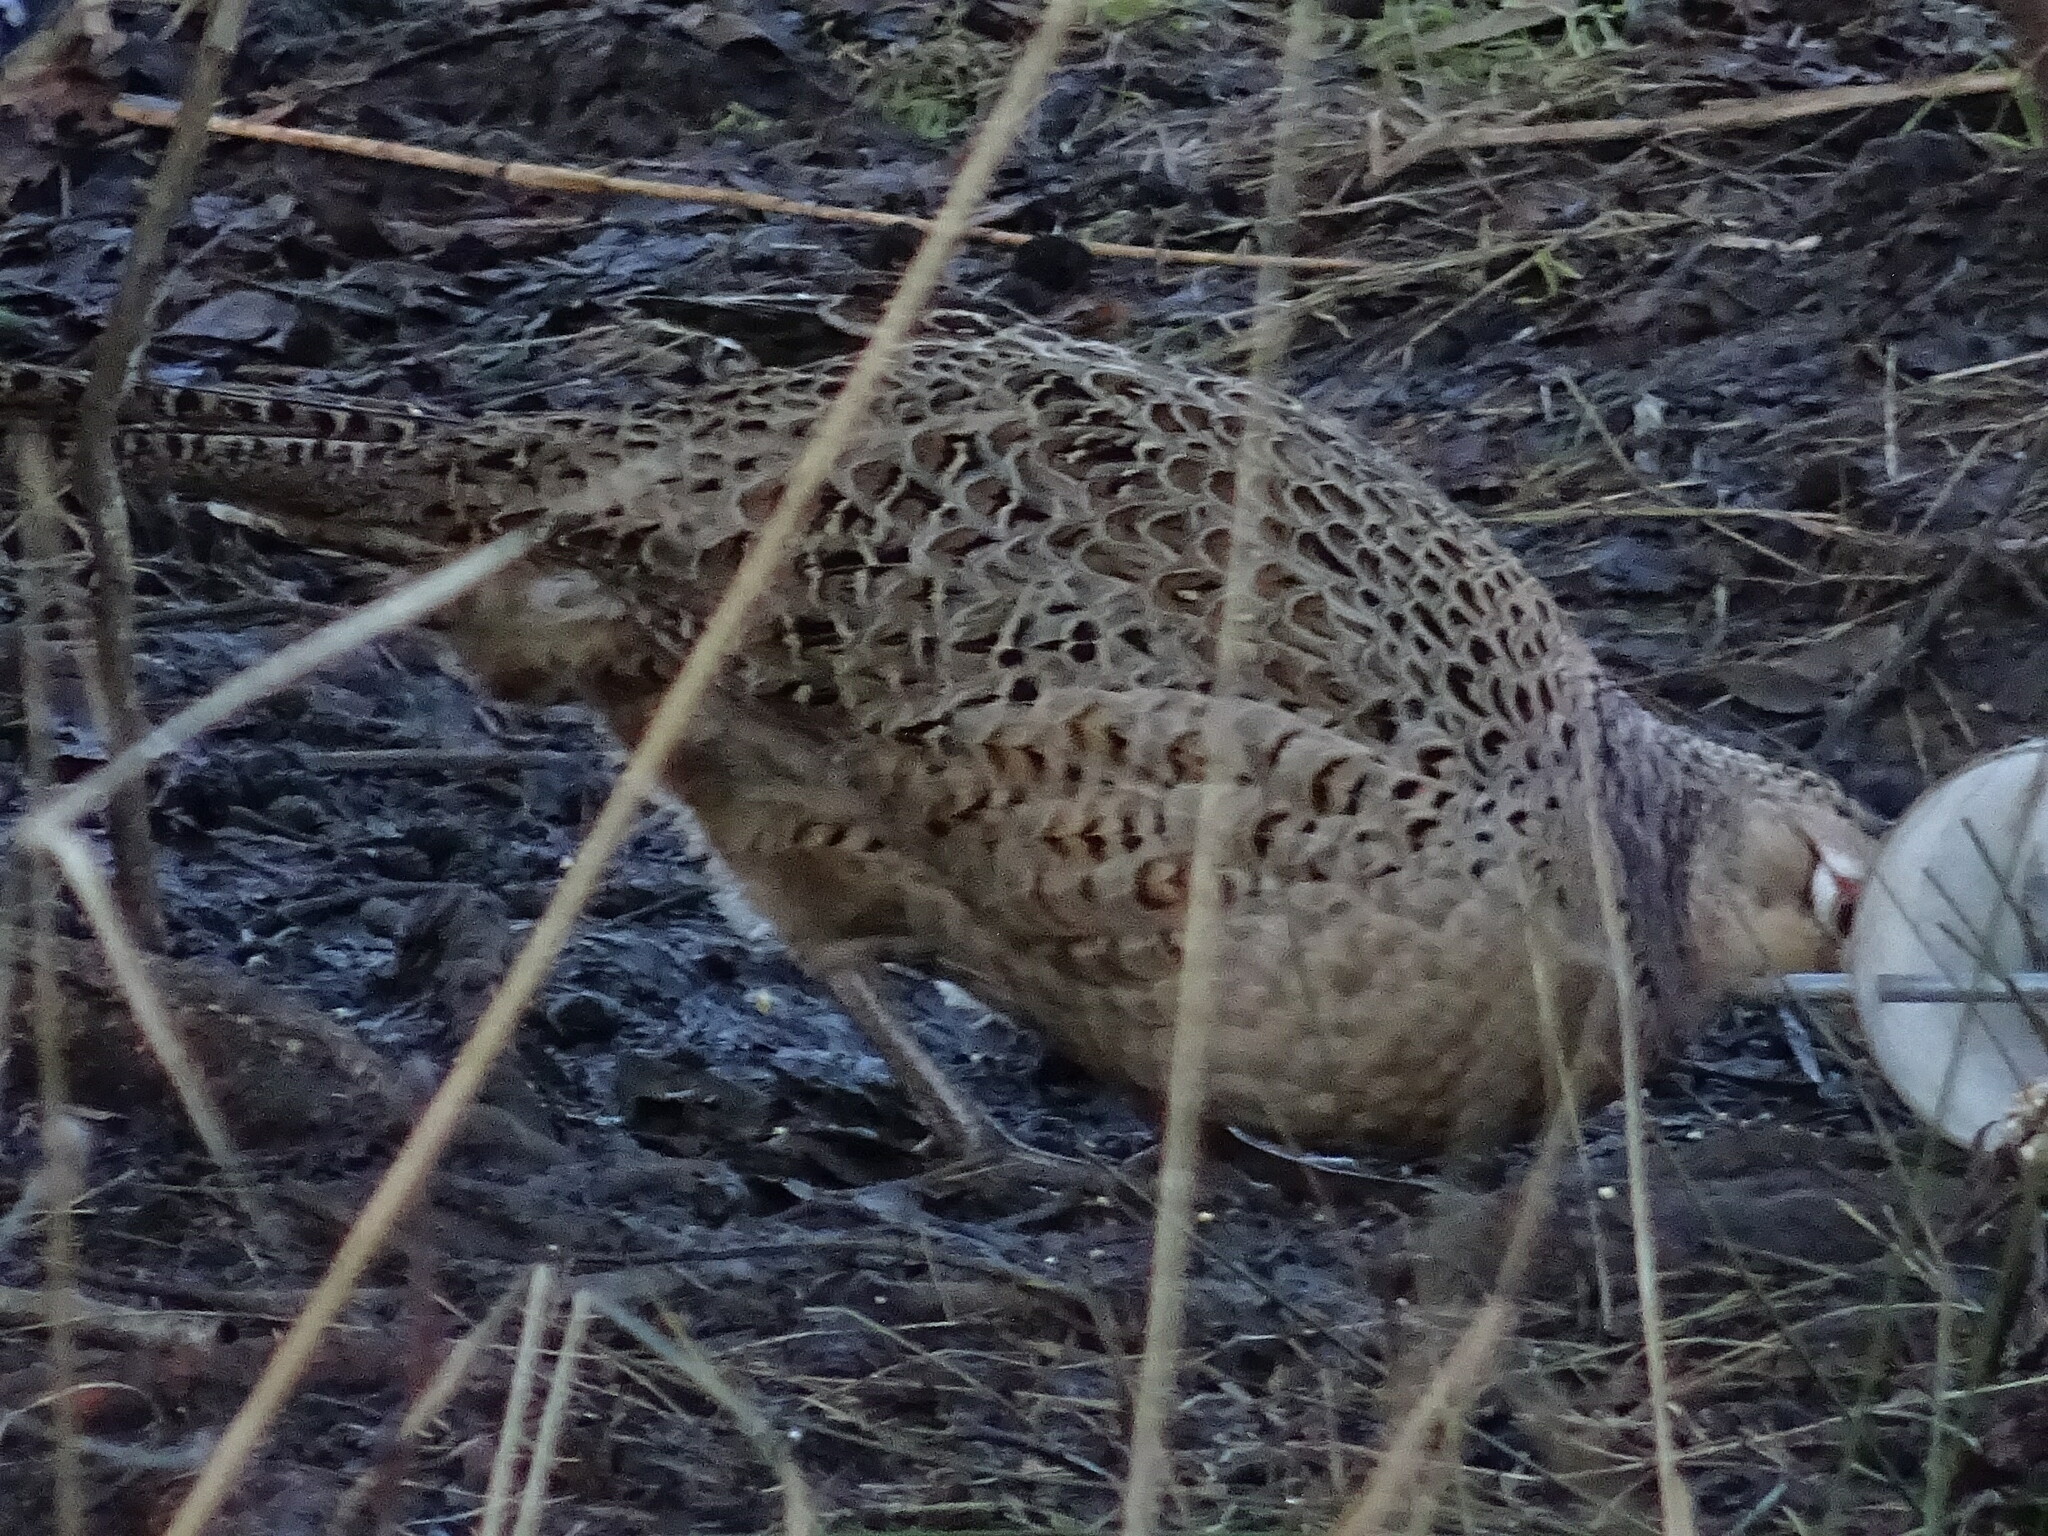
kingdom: Animalia
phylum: Chordata
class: Aves
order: Galliformes
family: Phasianidae
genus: Phasianus
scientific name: Phasianus colchicus
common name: Common pheasant
